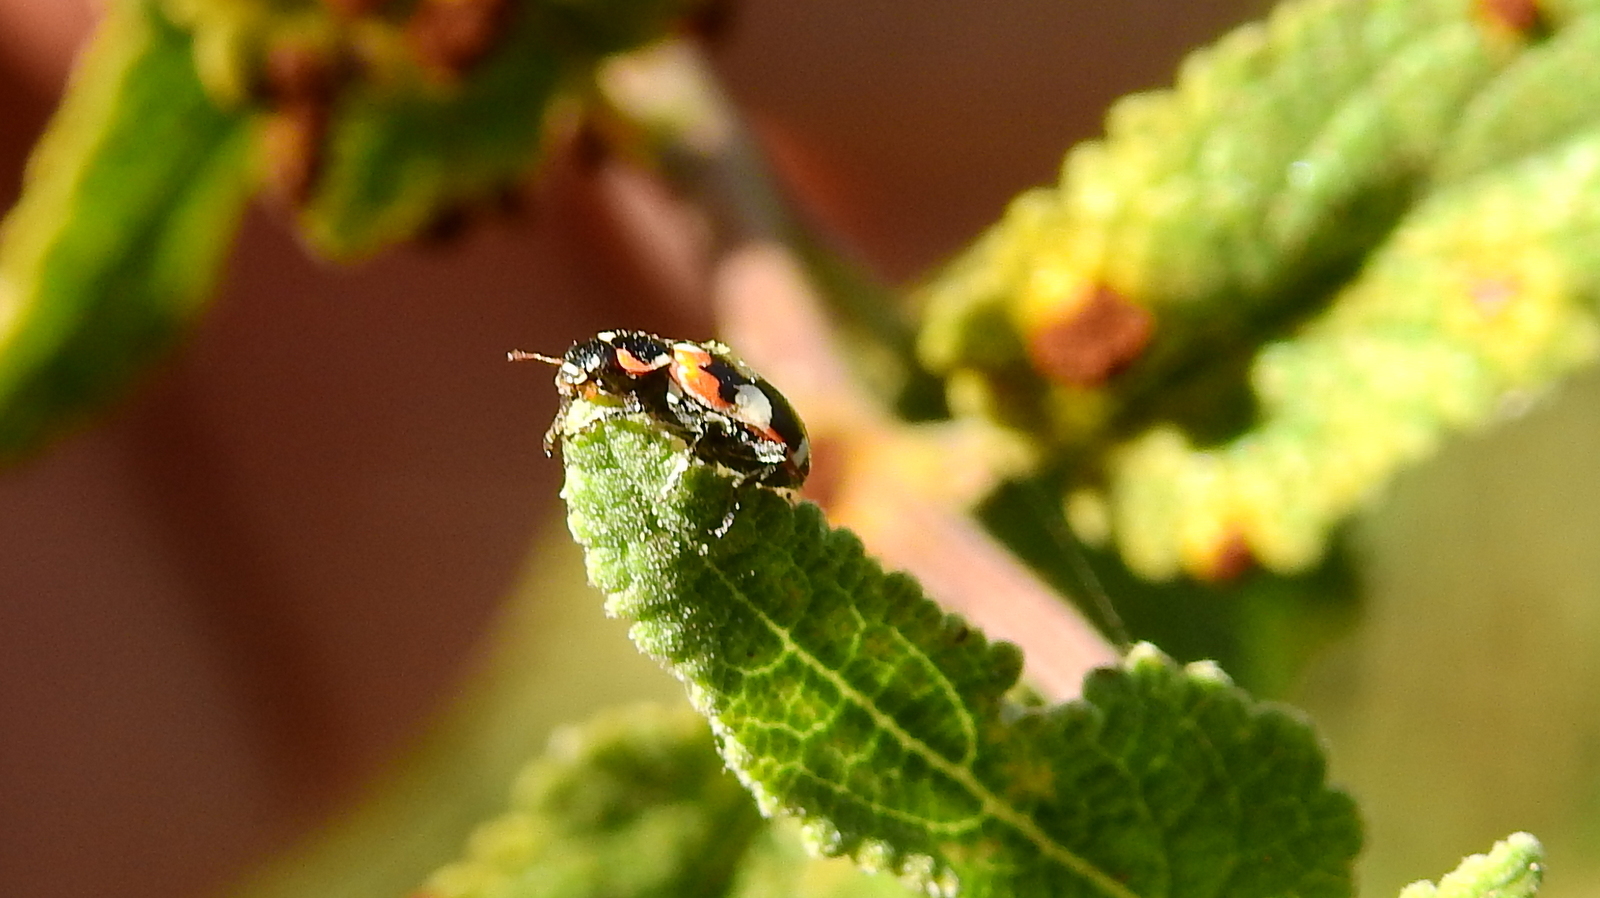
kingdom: Animalia
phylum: Arthropoda
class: Insecta
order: Coleoptera
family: Coccinellidae
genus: Eriopis
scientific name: Eriopis connexa
